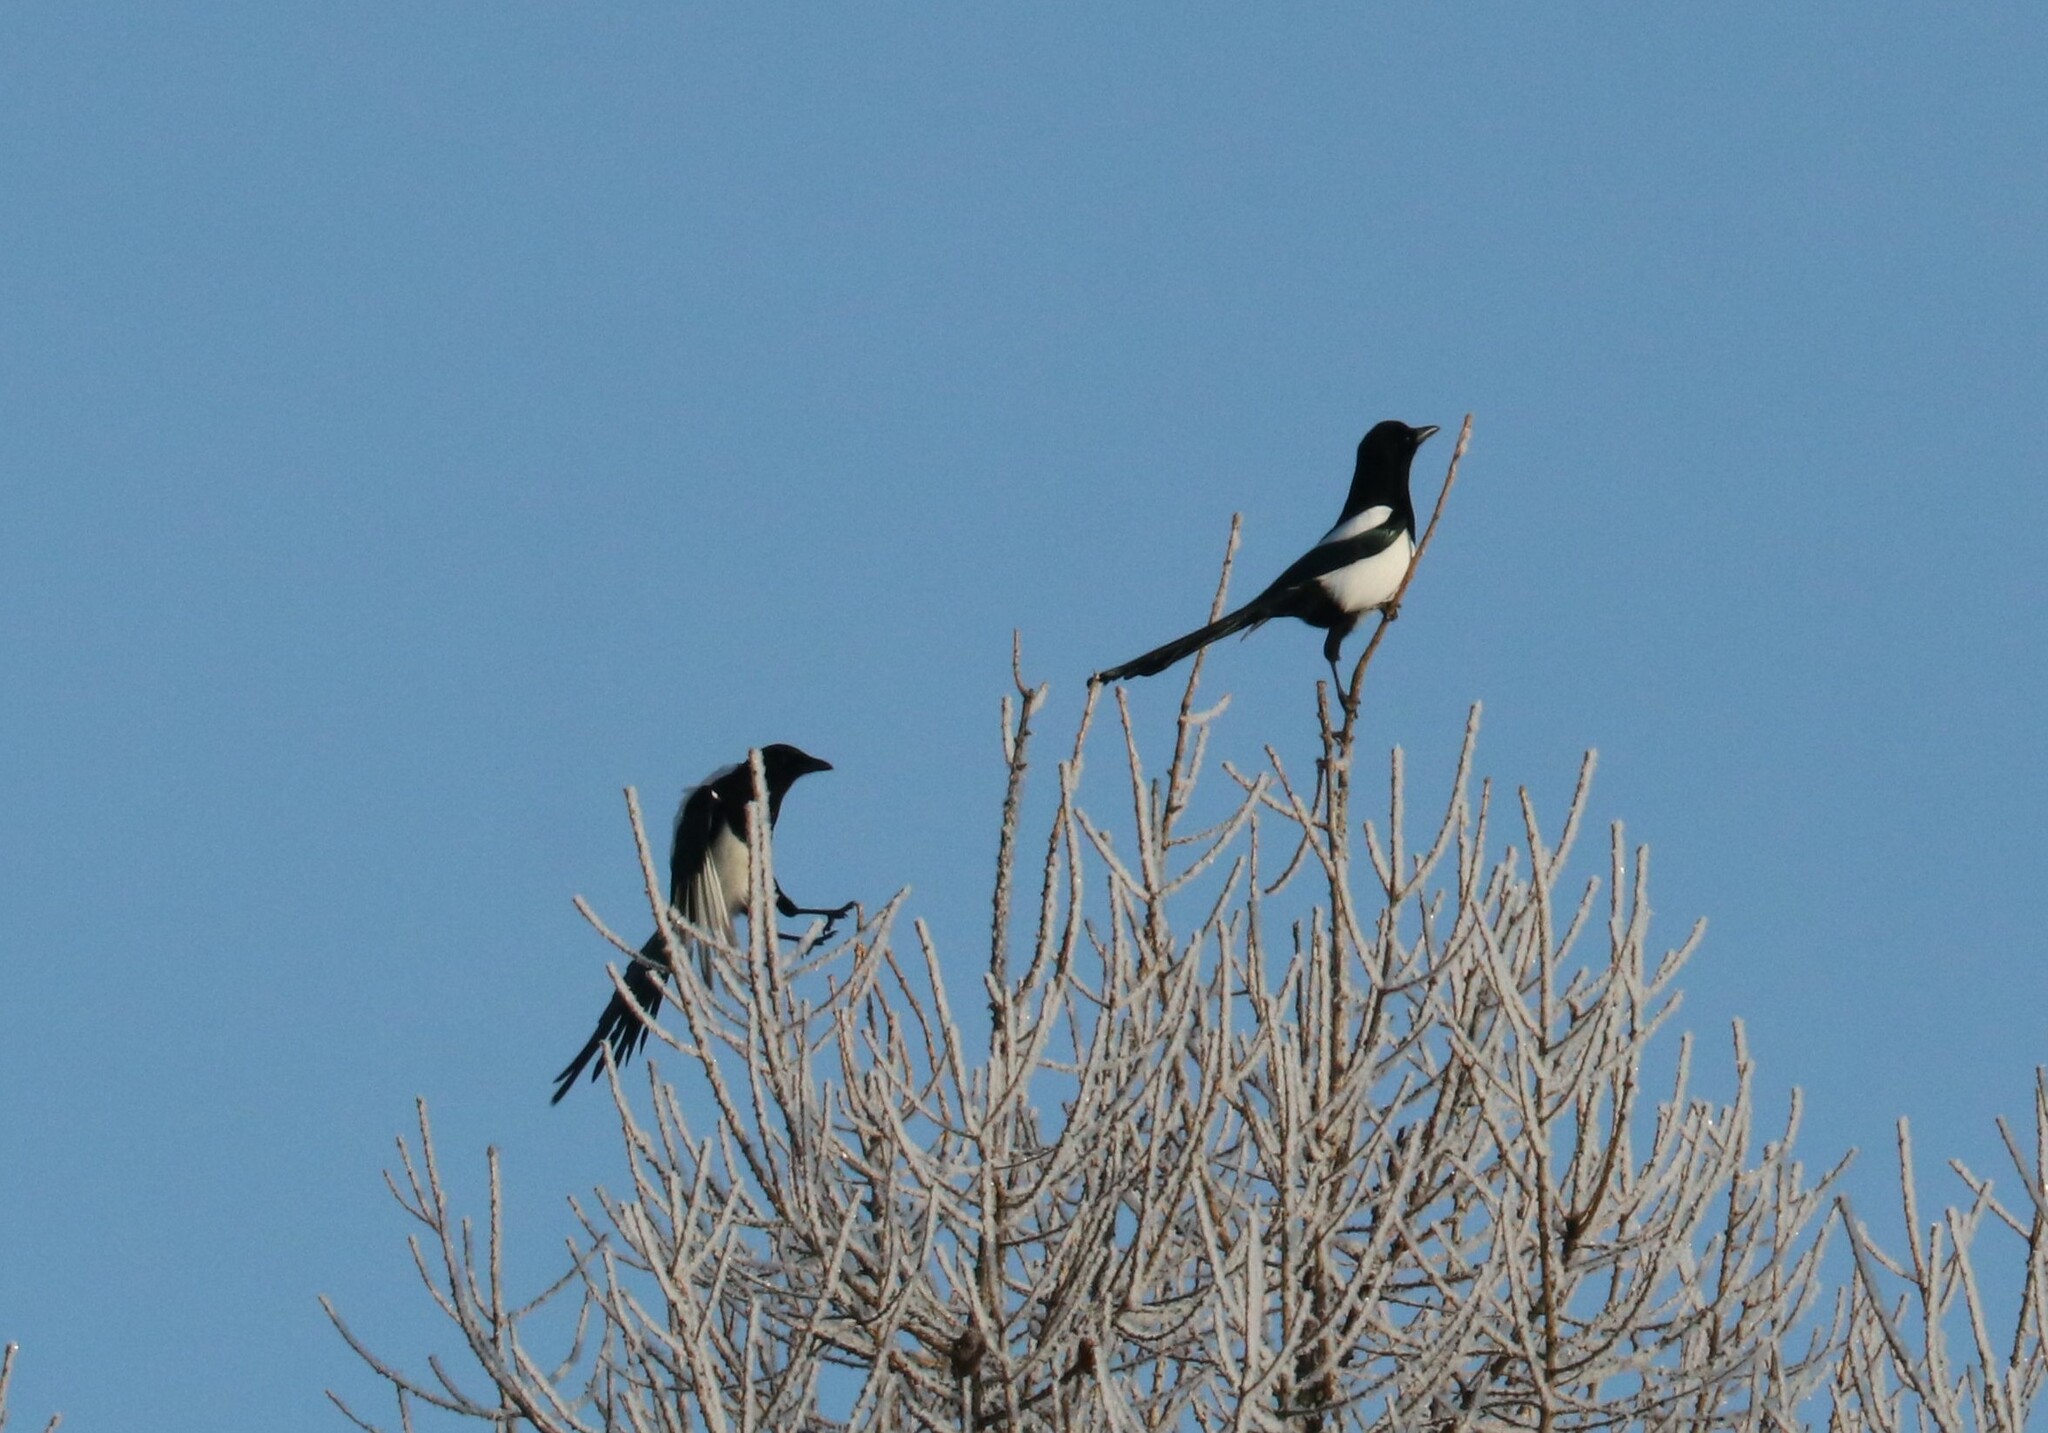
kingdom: Animalia
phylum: Chordata
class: Aves
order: Passeriformes
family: Corvidae
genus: Pica
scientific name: Pica pica
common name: Eurasian magpie
